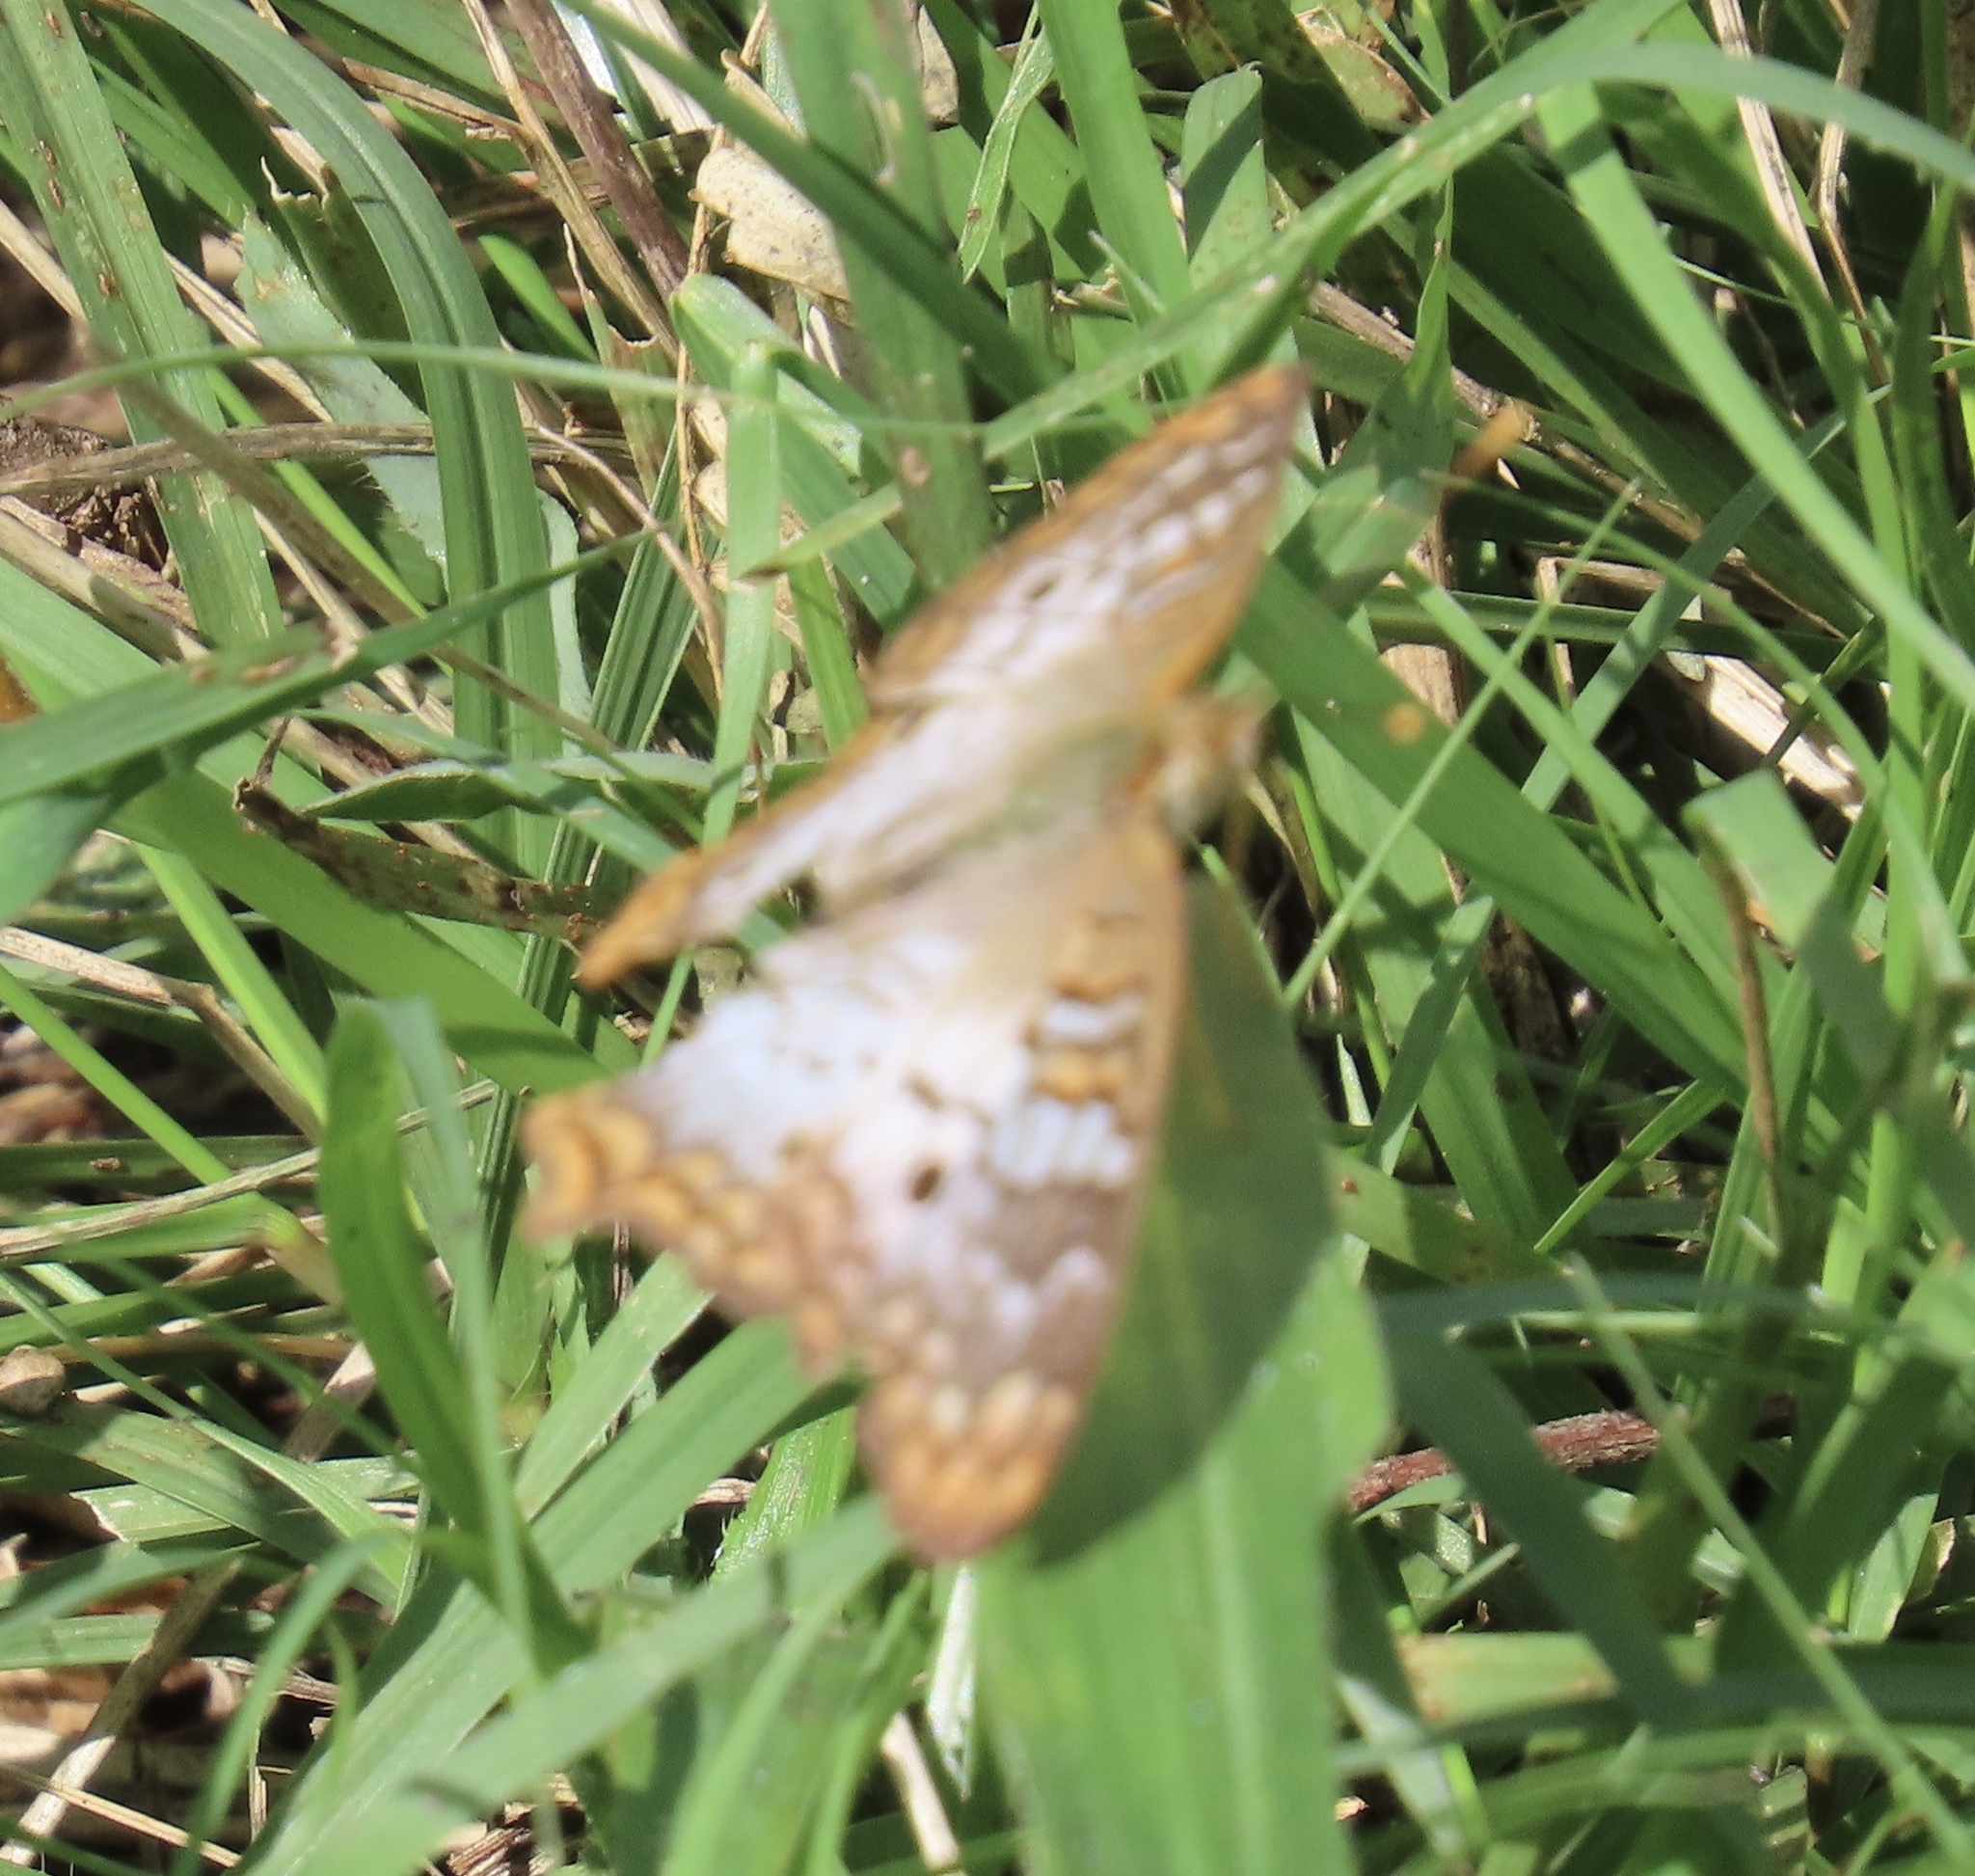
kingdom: Animalia
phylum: Arthropoda
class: Insecta
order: Lepidoptera
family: Nymphalidae
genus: Anartia
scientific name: Anartia jatrophae
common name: White peacock
